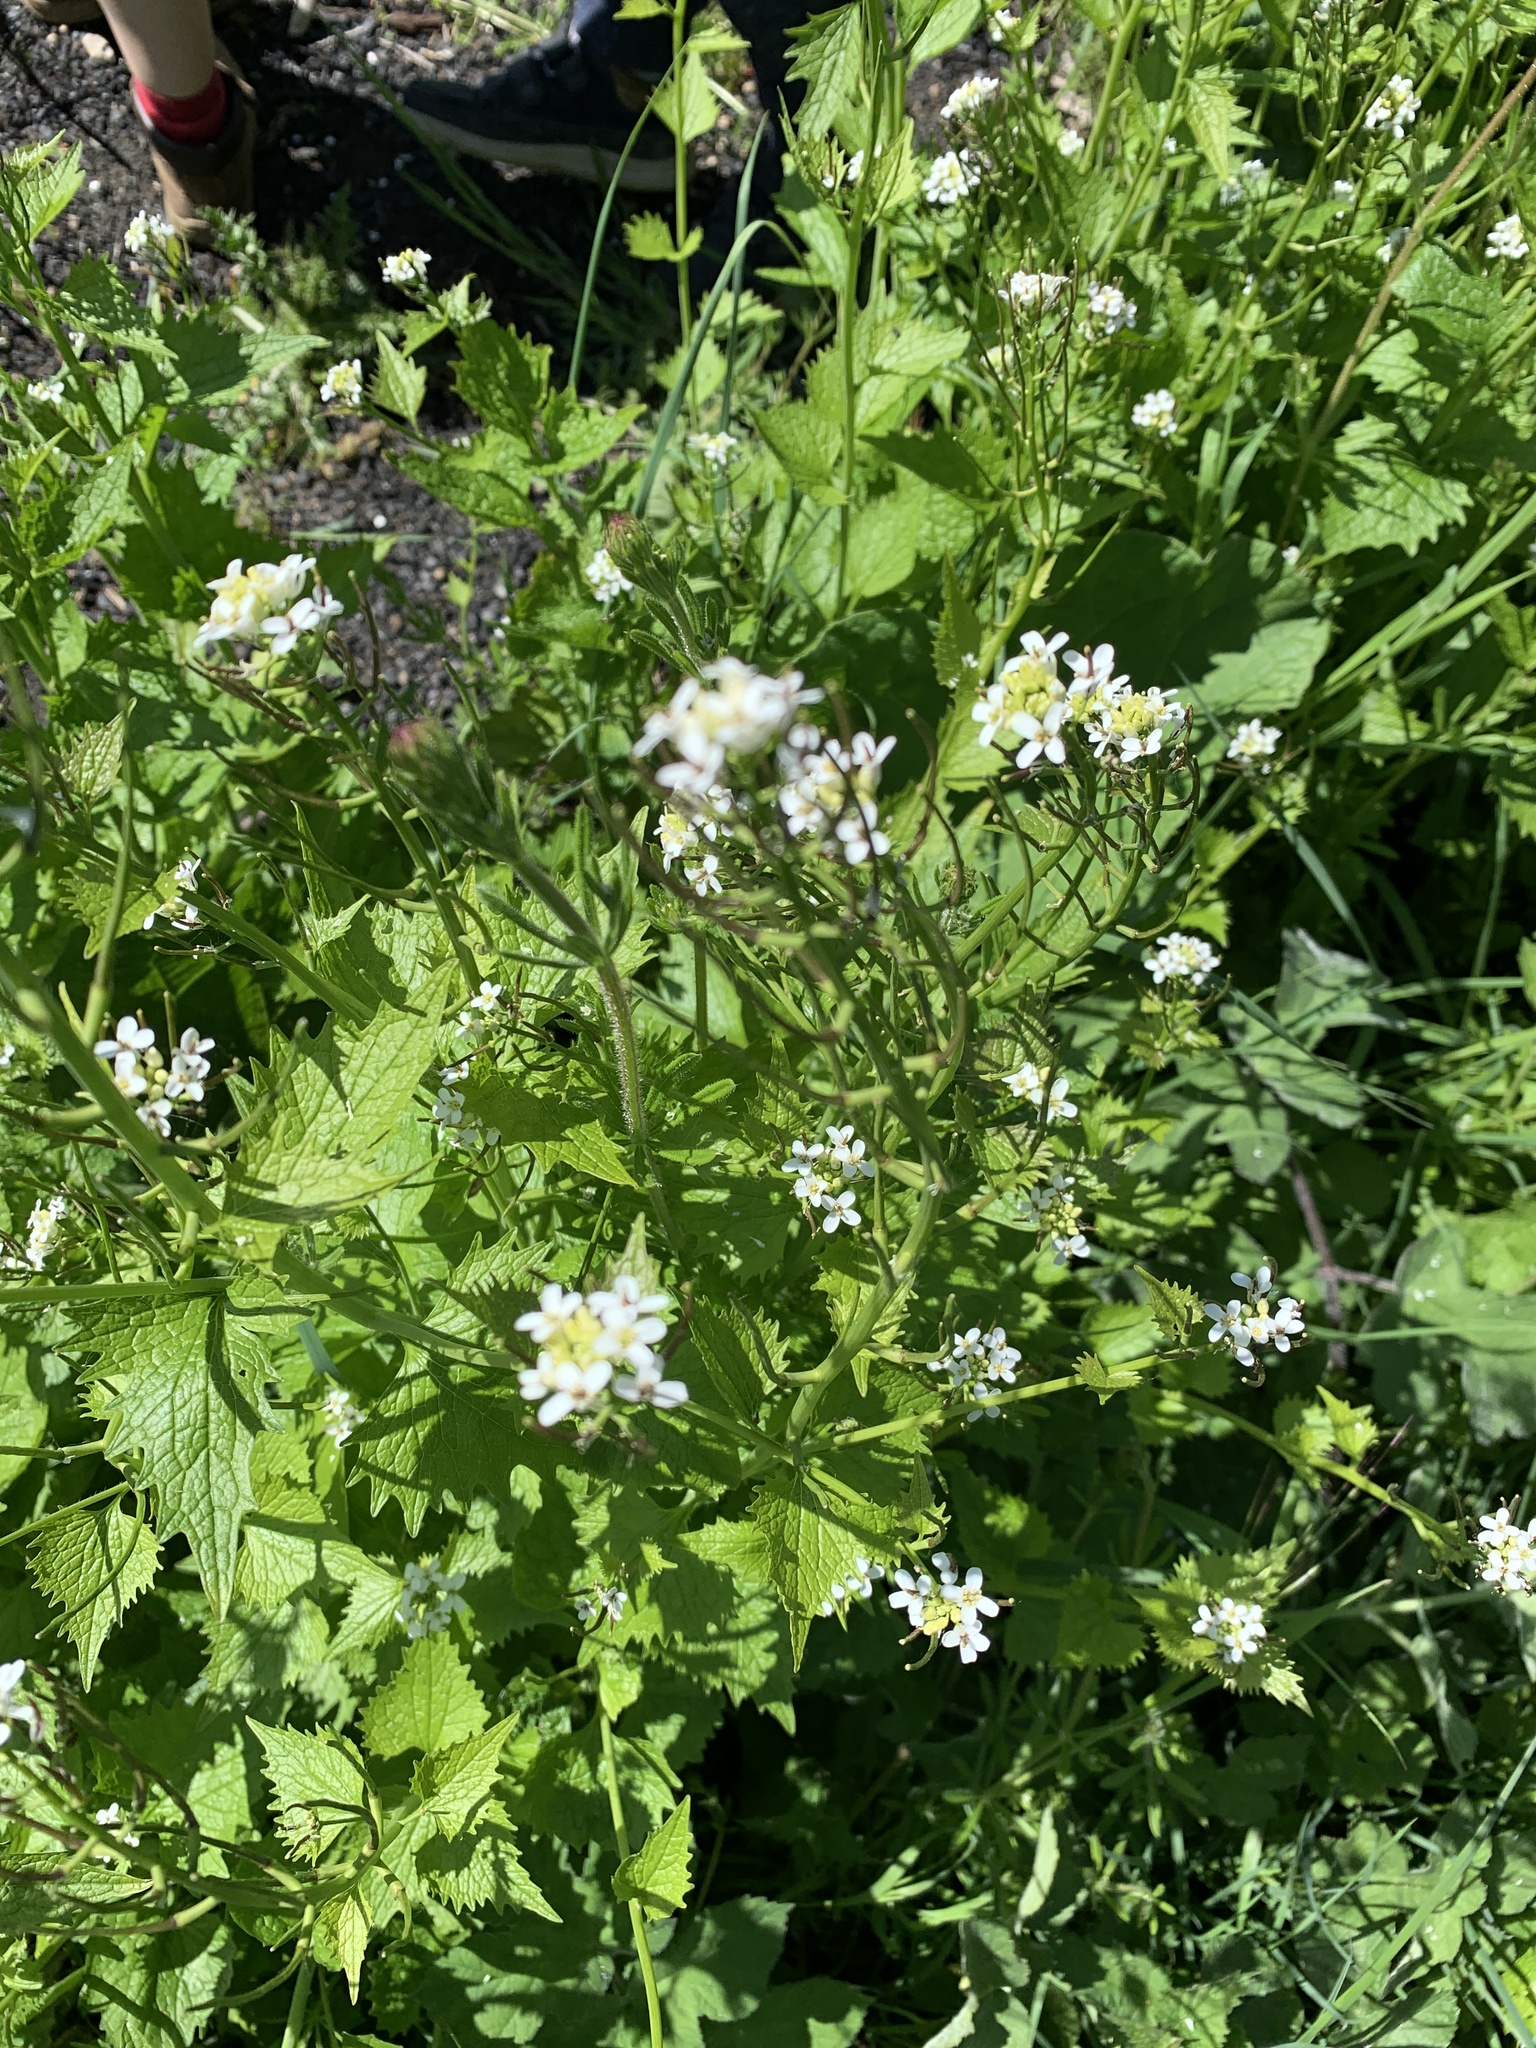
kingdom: Plantae
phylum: Tracheophyta
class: Magnoliopsida
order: Brassicales
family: Brassicaceae
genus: Alliaria
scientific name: Alliaria petiolata
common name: Garlic mustard
